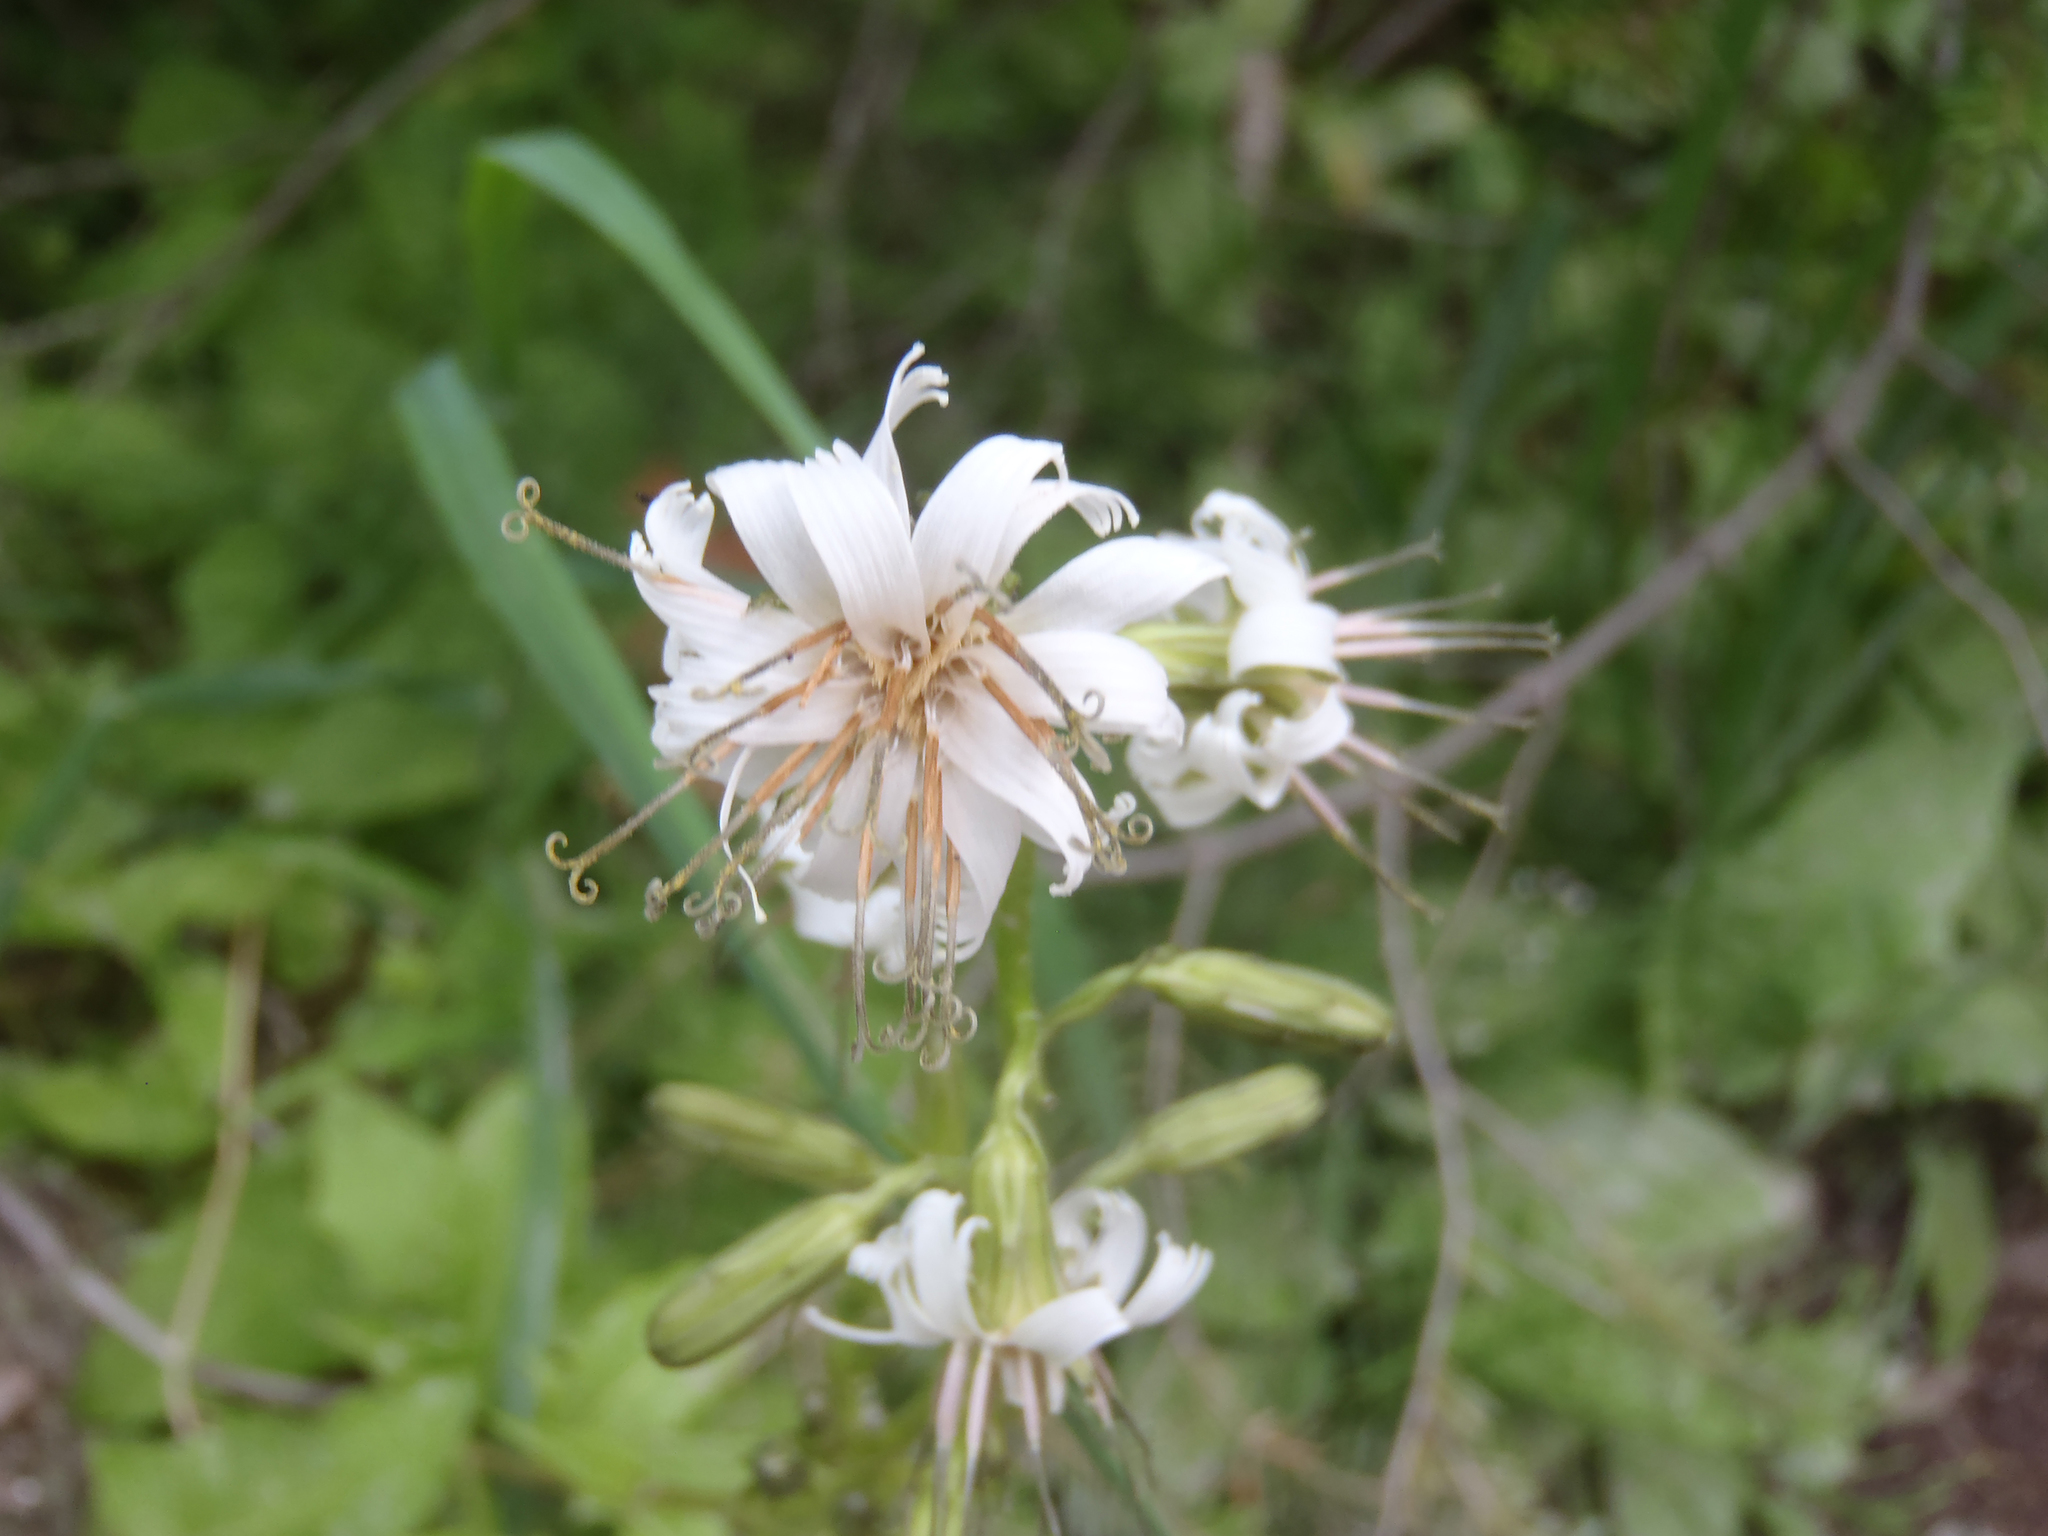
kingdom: Plantae
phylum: Tracheophyta
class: Magnoliopsida
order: Asterales
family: Asteraceae
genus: Nabalus
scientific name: Nabalus sagittatus
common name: Arrowleaf snakeroot
